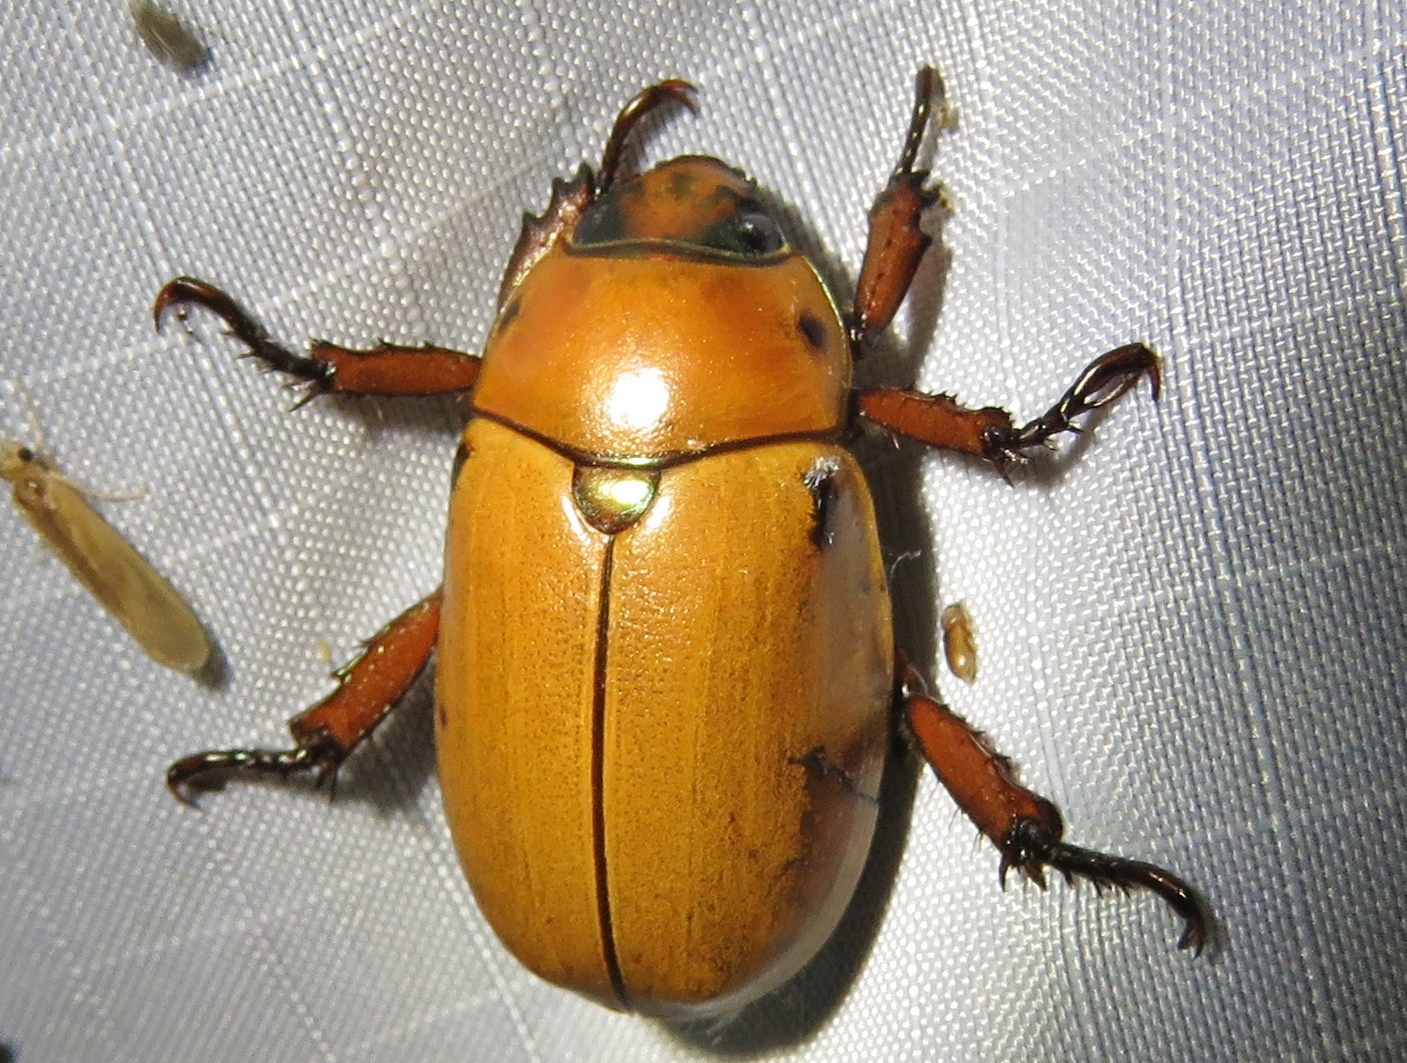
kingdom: Animalia
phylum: Arthropoda
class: Insecta
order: Coleoptera
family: Scarabaeidae
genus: Pelidnota
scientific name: Pelidnota punctata
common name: Grapevine beetle
